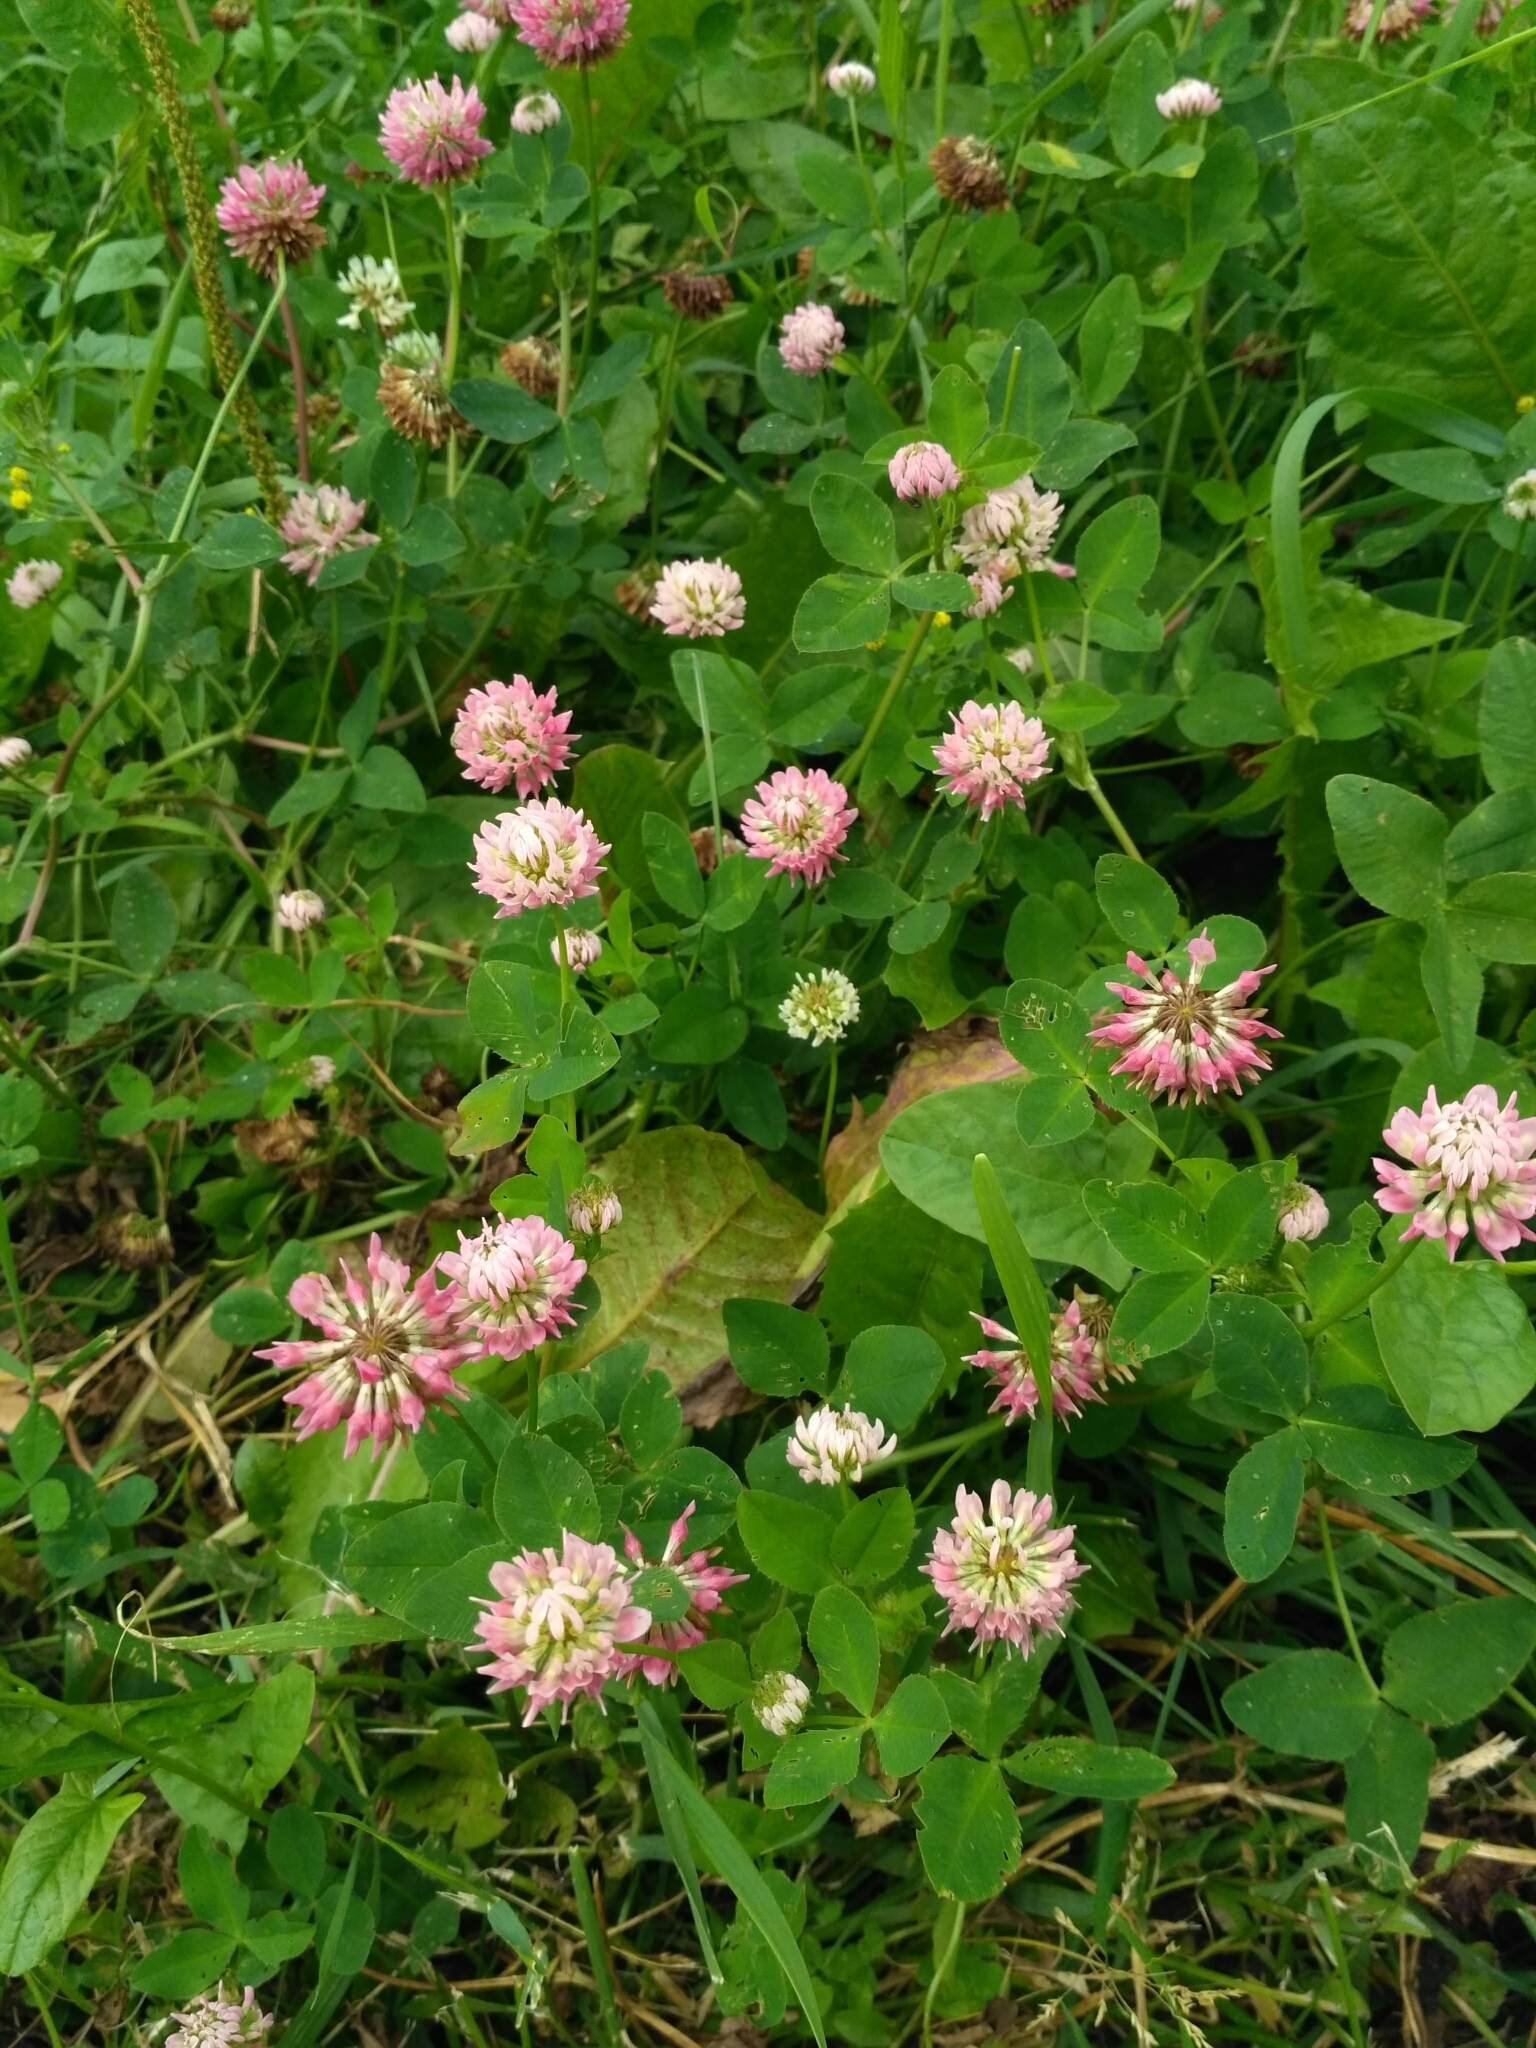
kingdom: Plantae
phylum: Tracheophyta
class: Magnoliopsida
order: Fabales
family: Fabaceae
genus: Trifolium
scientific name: Trifolium hybridum
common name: Alsike clover
